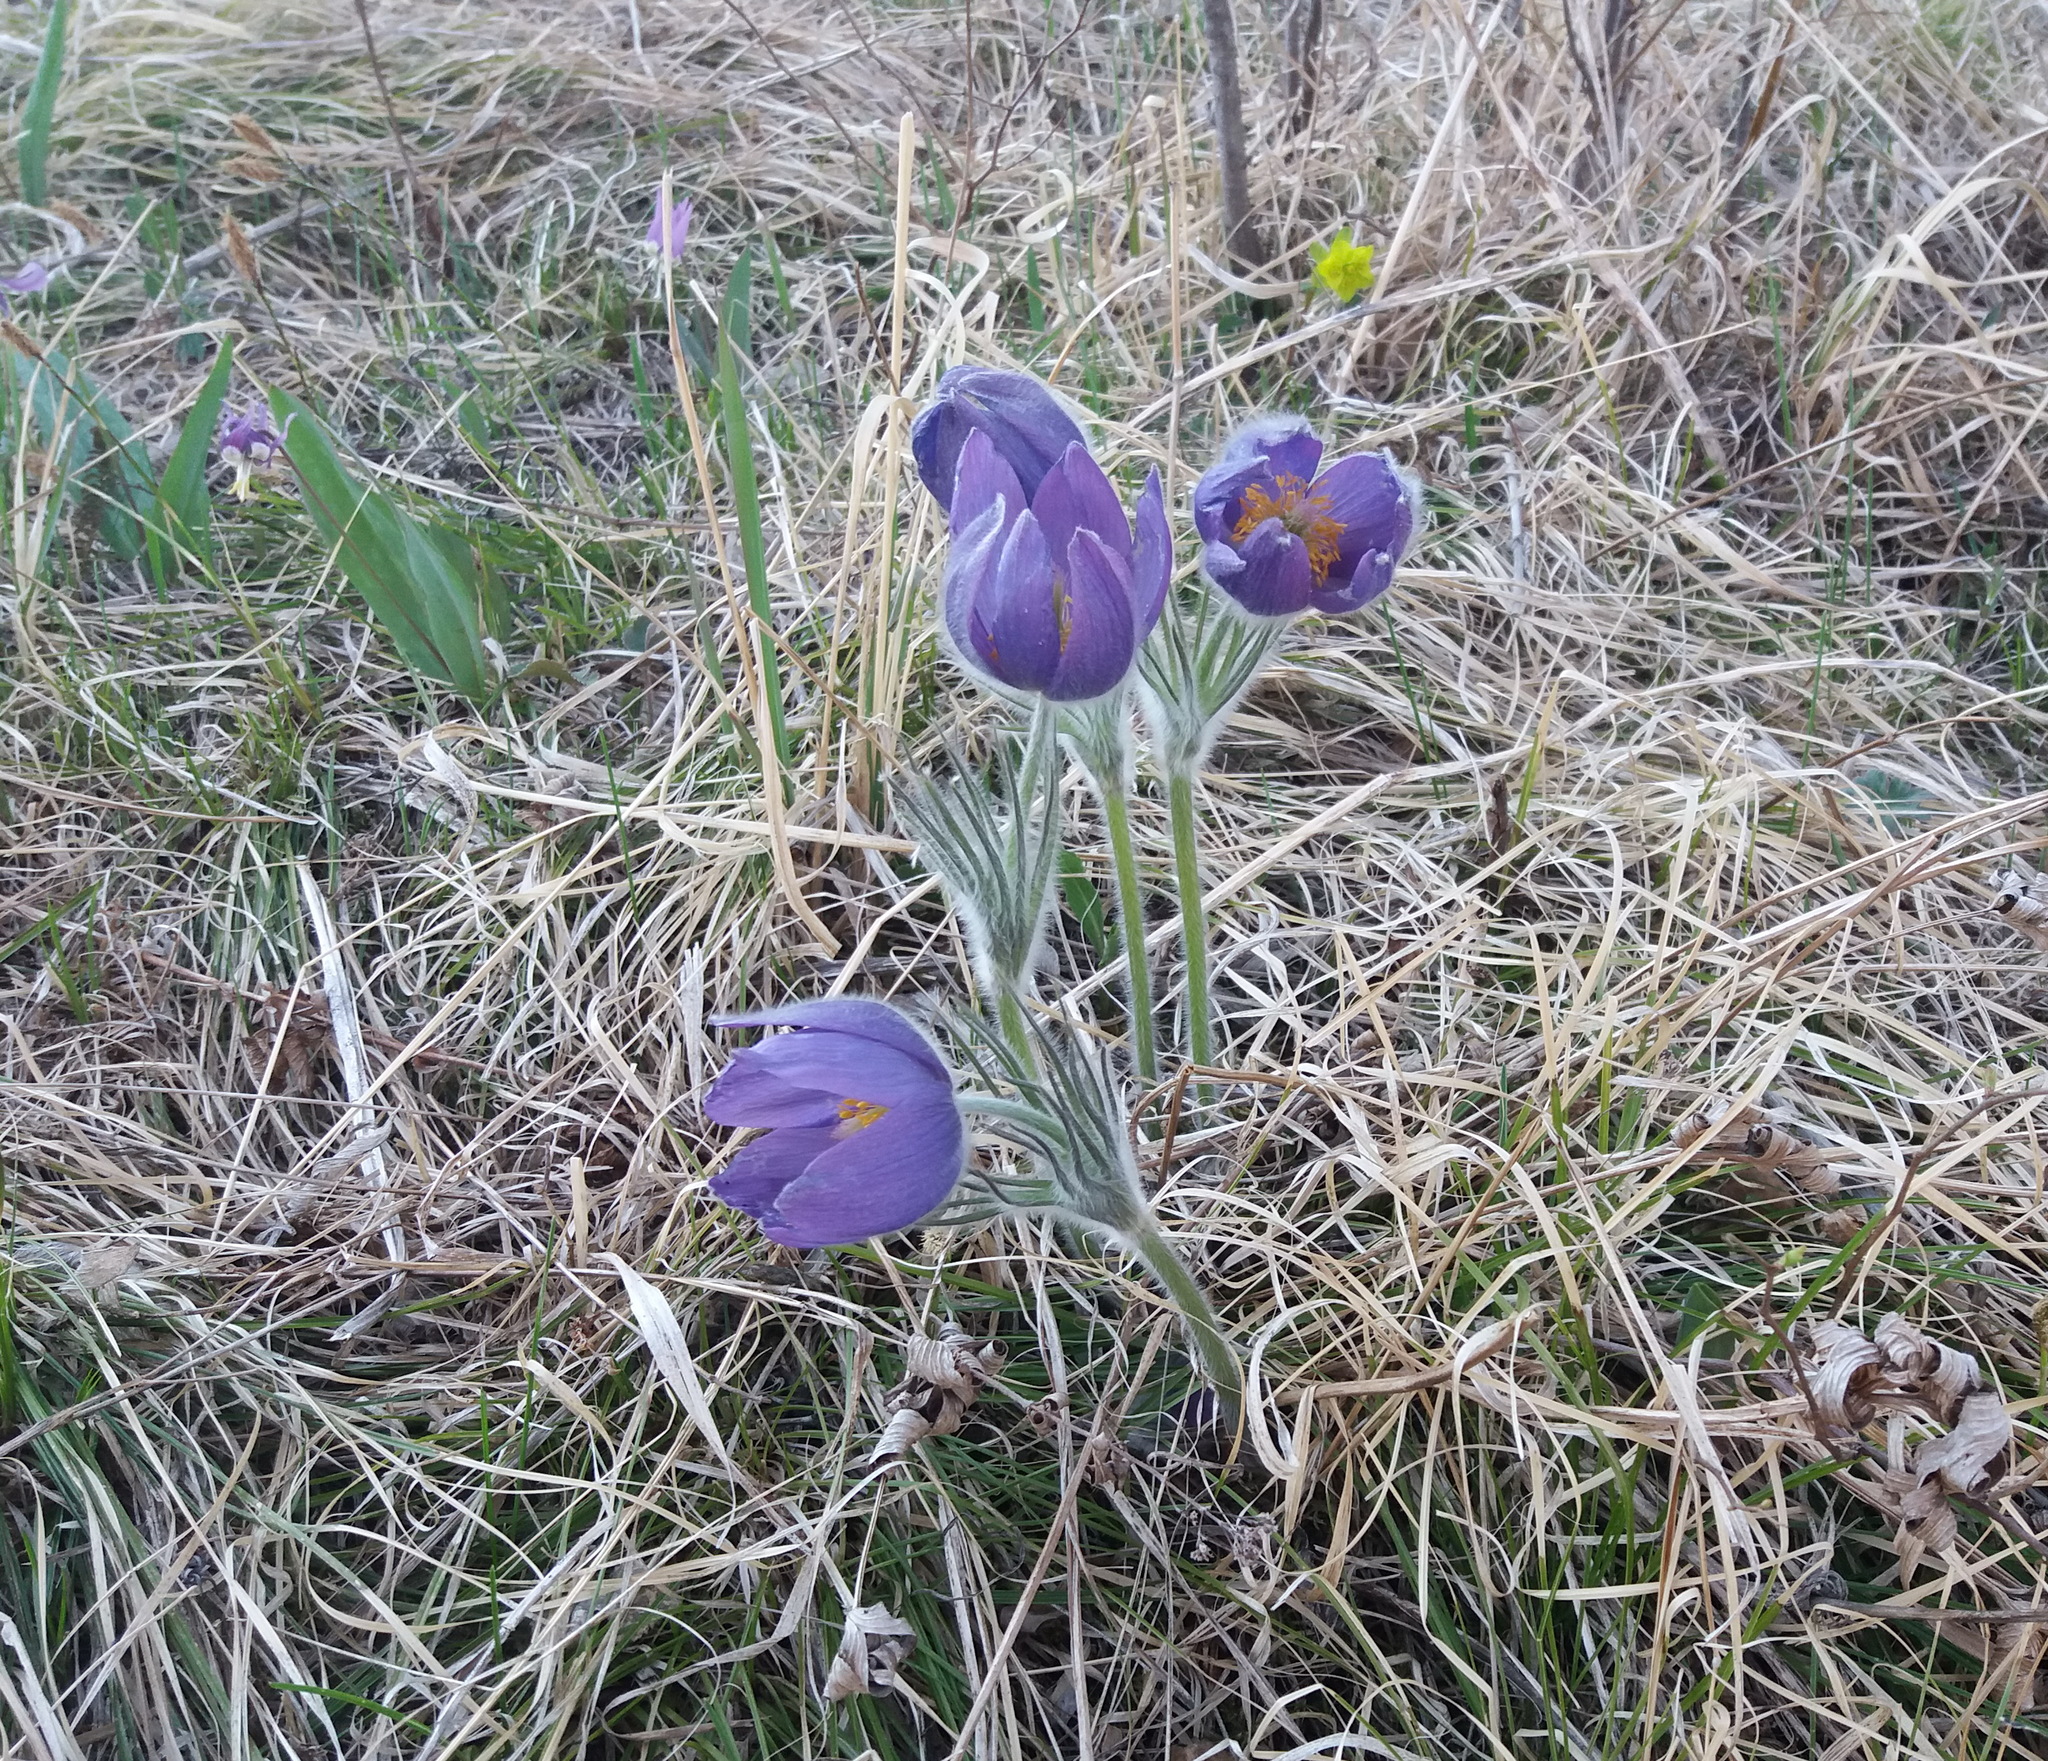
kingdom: Plantae
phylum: Tracheophyta
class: Magnoliopsida
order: Ranunculales
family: Ranunculaceae
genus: Pulsatilla
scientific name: Pulsatilla patens
